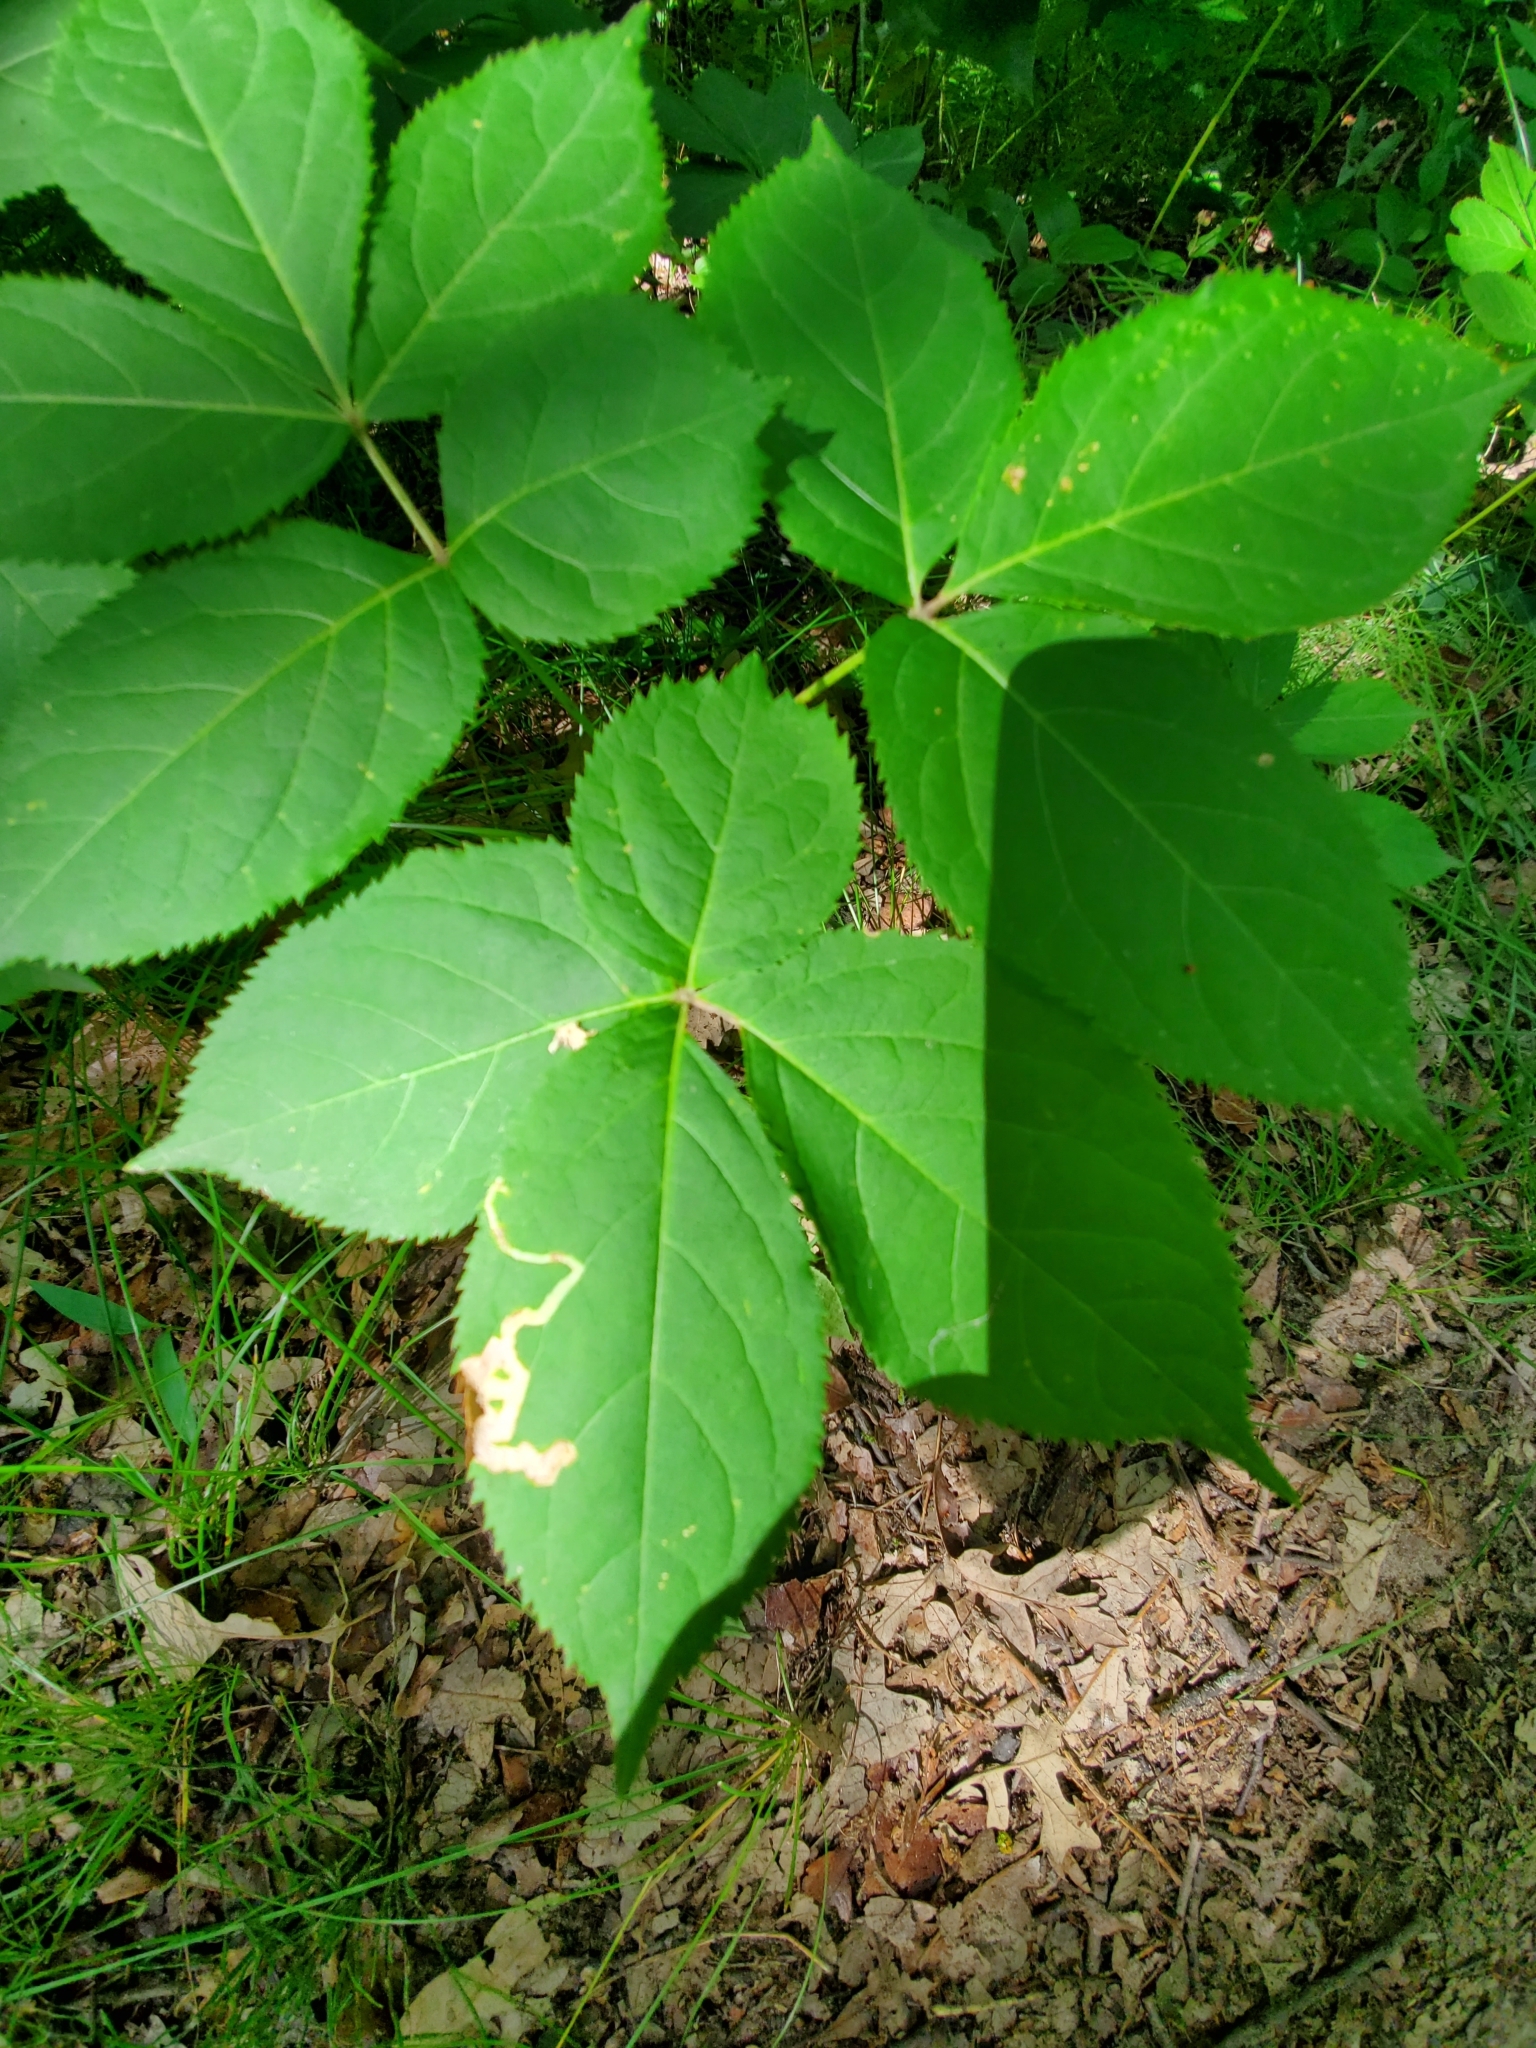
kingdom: Animalia
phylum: Arthropoda
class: Insecta
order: Diptera
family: Agromyzidae
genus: Phytomyza
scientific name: Phytomyza aralivora
